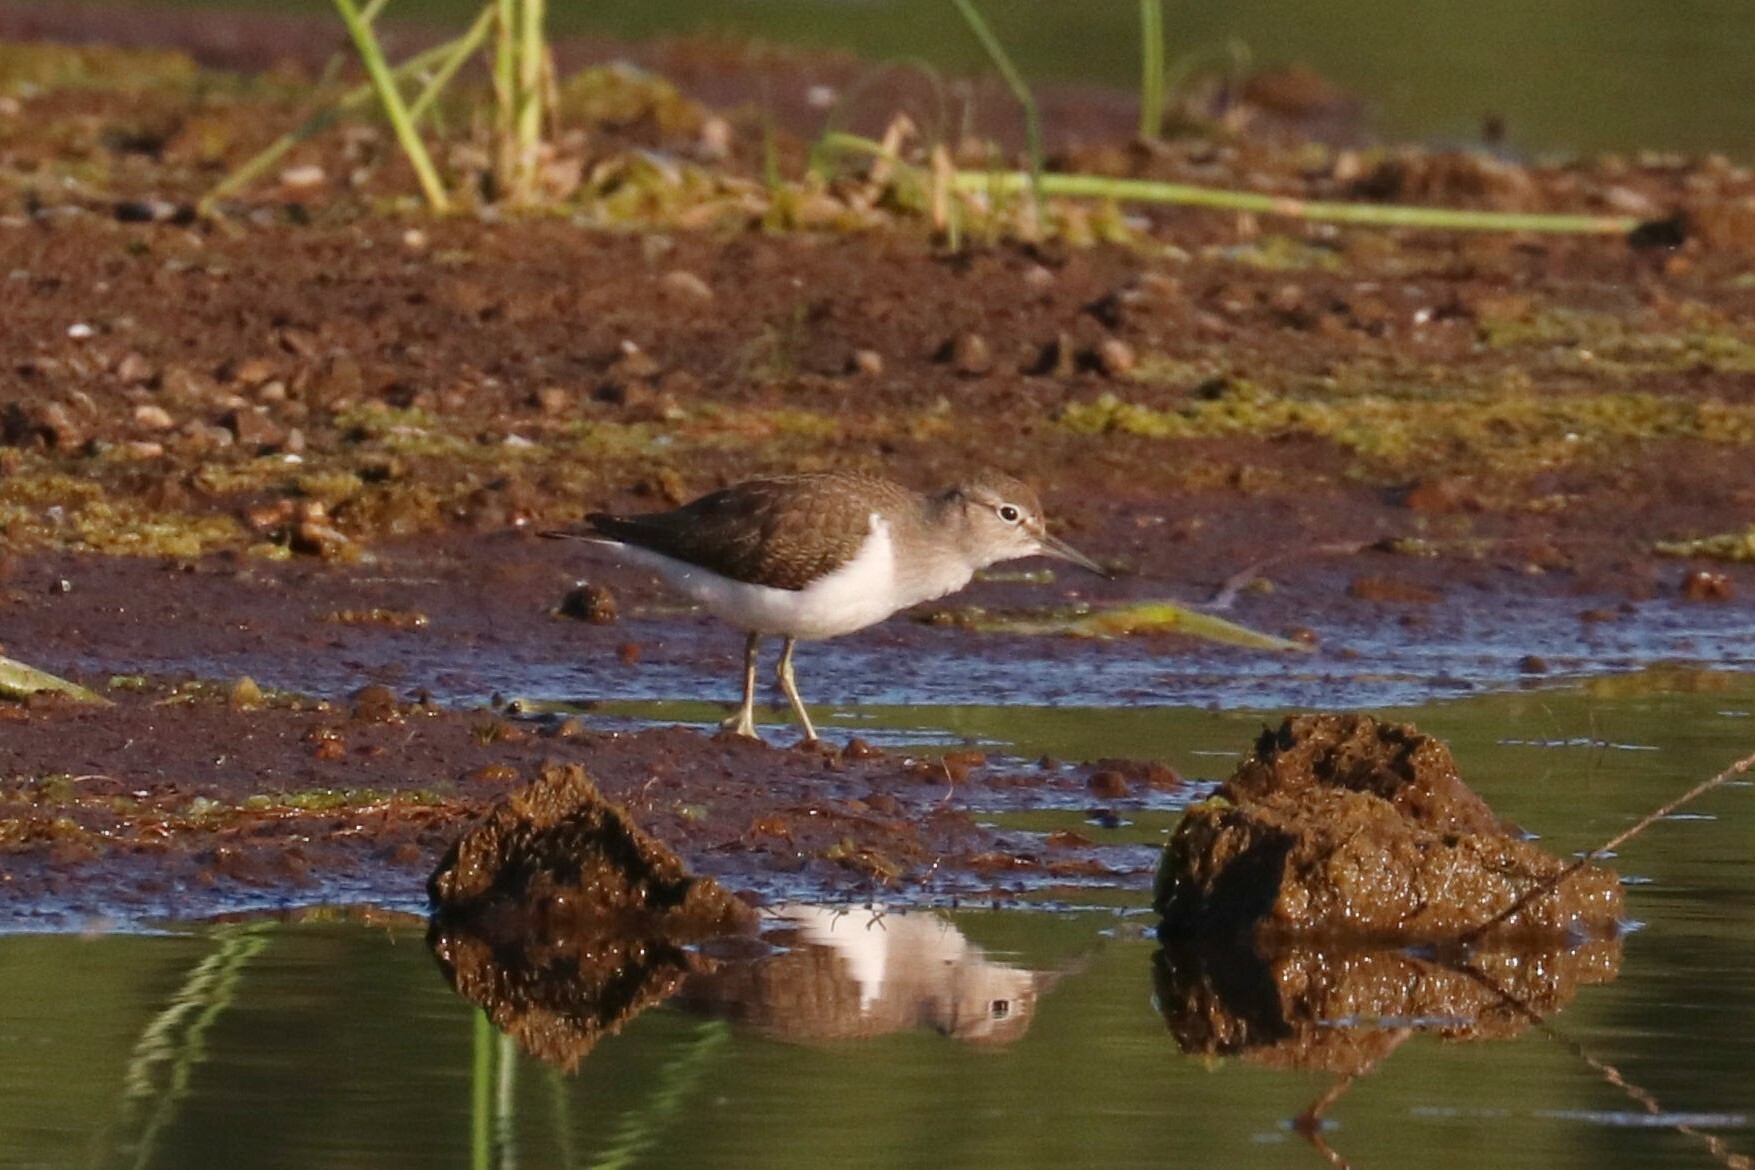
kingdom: Animalia
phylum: Chordata
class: Aves
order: Charadriiformes
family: Scolopacidae
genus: Actitis
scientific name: Actitis hypoleucos
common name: Common sandpiper
